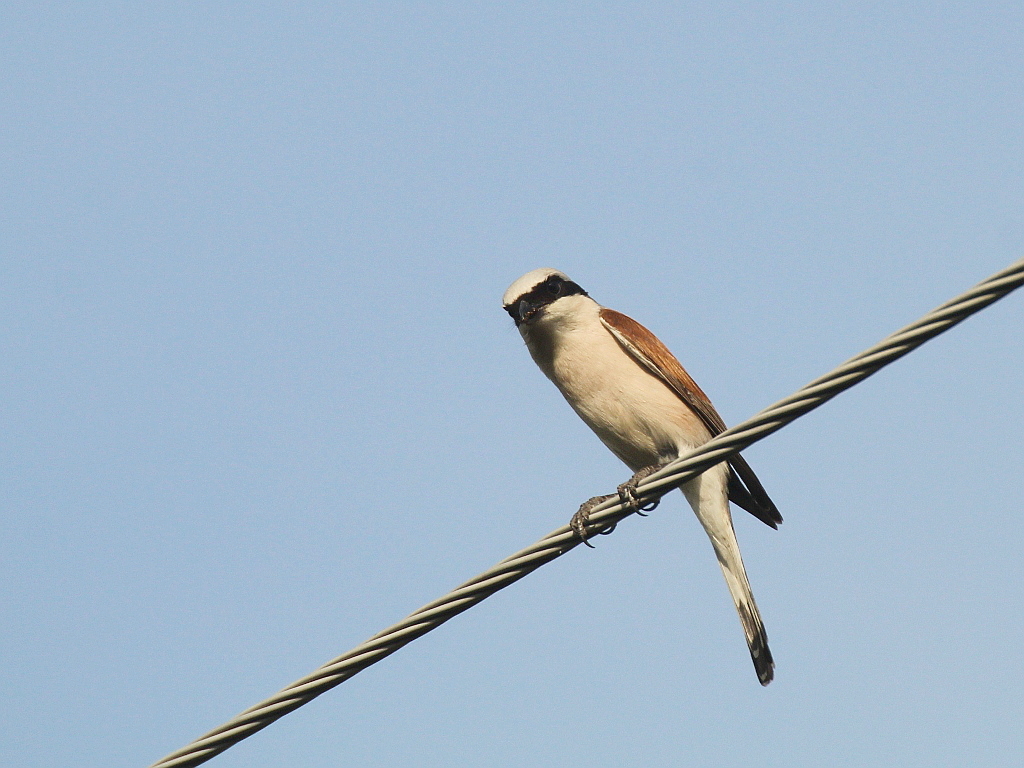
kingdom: Animalia
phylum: Chordata
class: Aves
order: Passeriformes
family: Laniidae
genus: Lanius
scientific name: Lanius collurio
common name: Red-backed shrike
